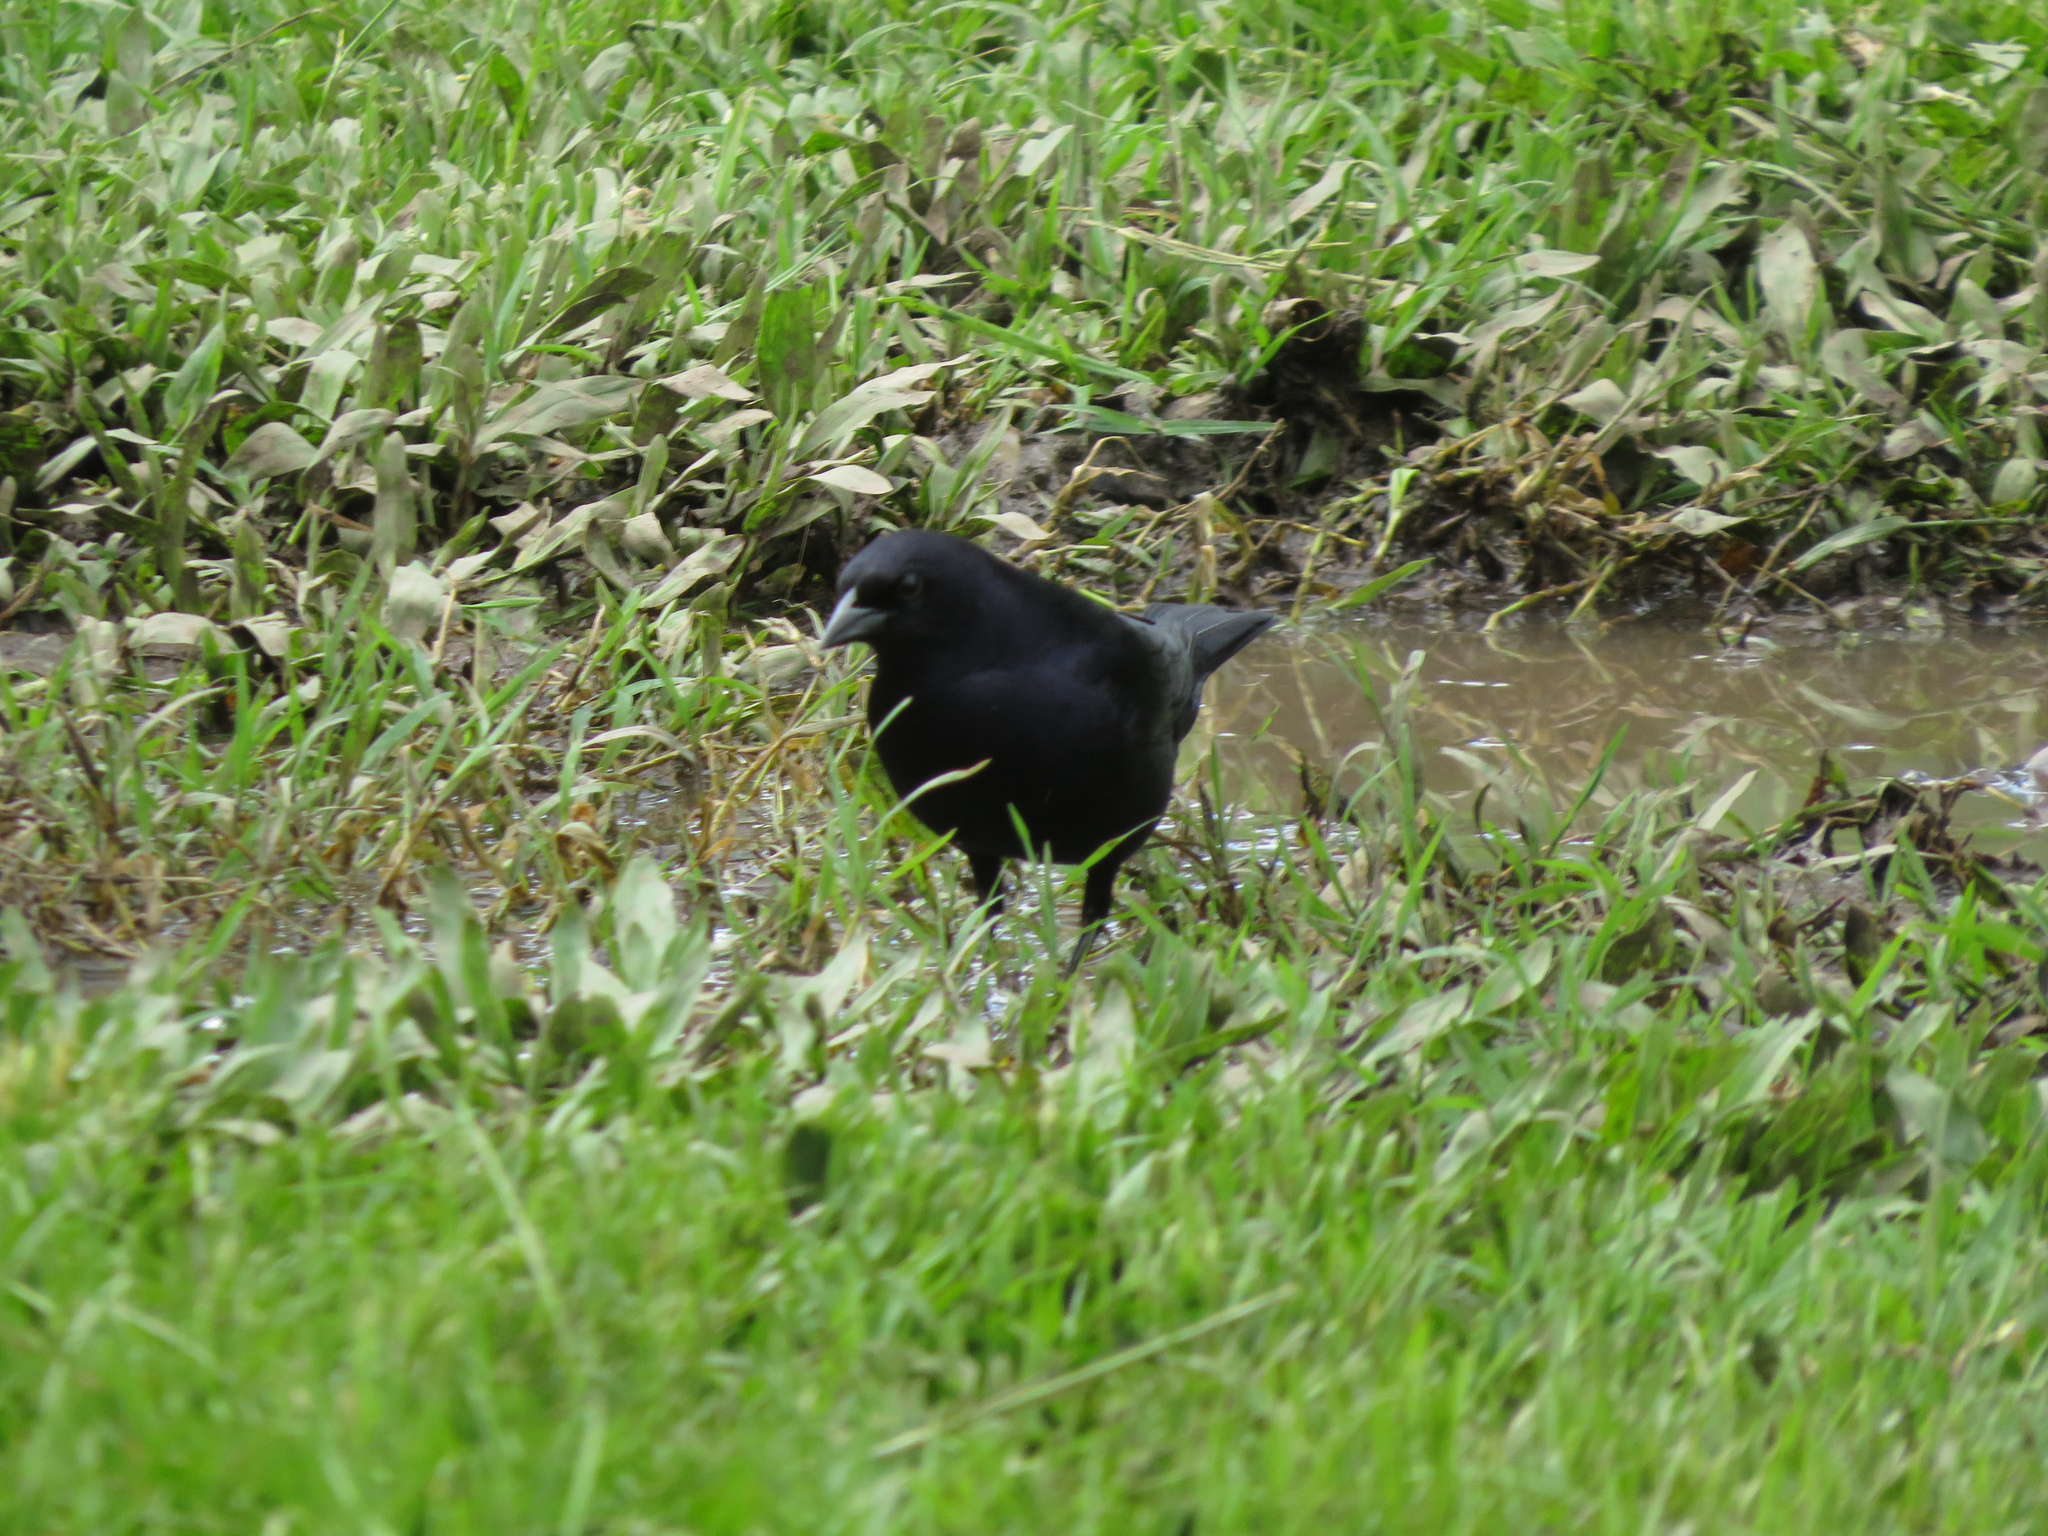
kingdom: Animalia
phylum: Chordata
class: Aves
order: Passeriformes
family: Icteridae
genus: Molothrus
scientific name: Molothrus bonariensis
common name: Shiny cowbird
